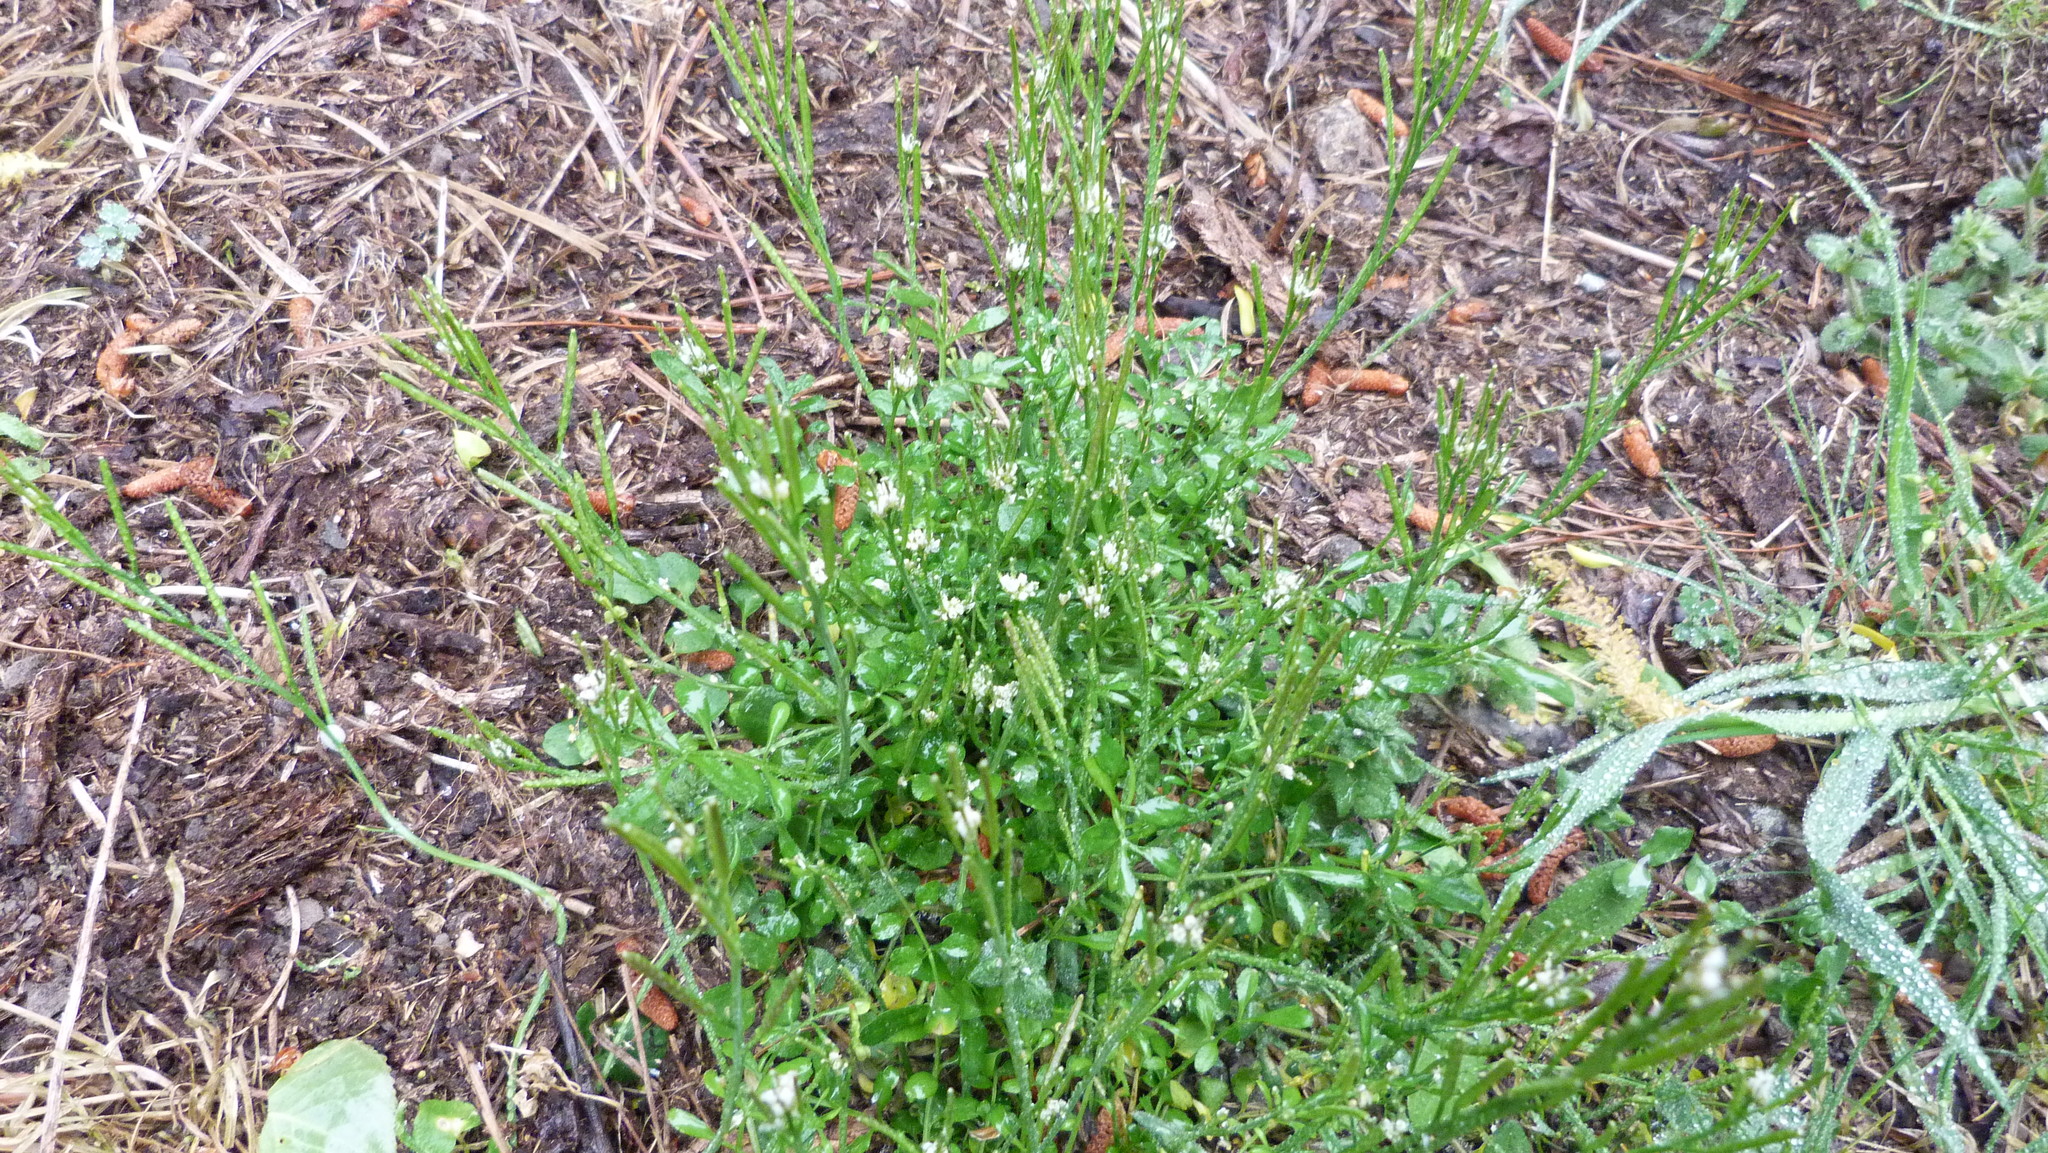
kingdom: Plantae
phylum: Tracheophyta
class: Magnoliopsida
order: Brassicales
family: Brassicaceae
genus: Cardamine
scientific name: Cardamine hirsuta
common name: Hairy bittercress
